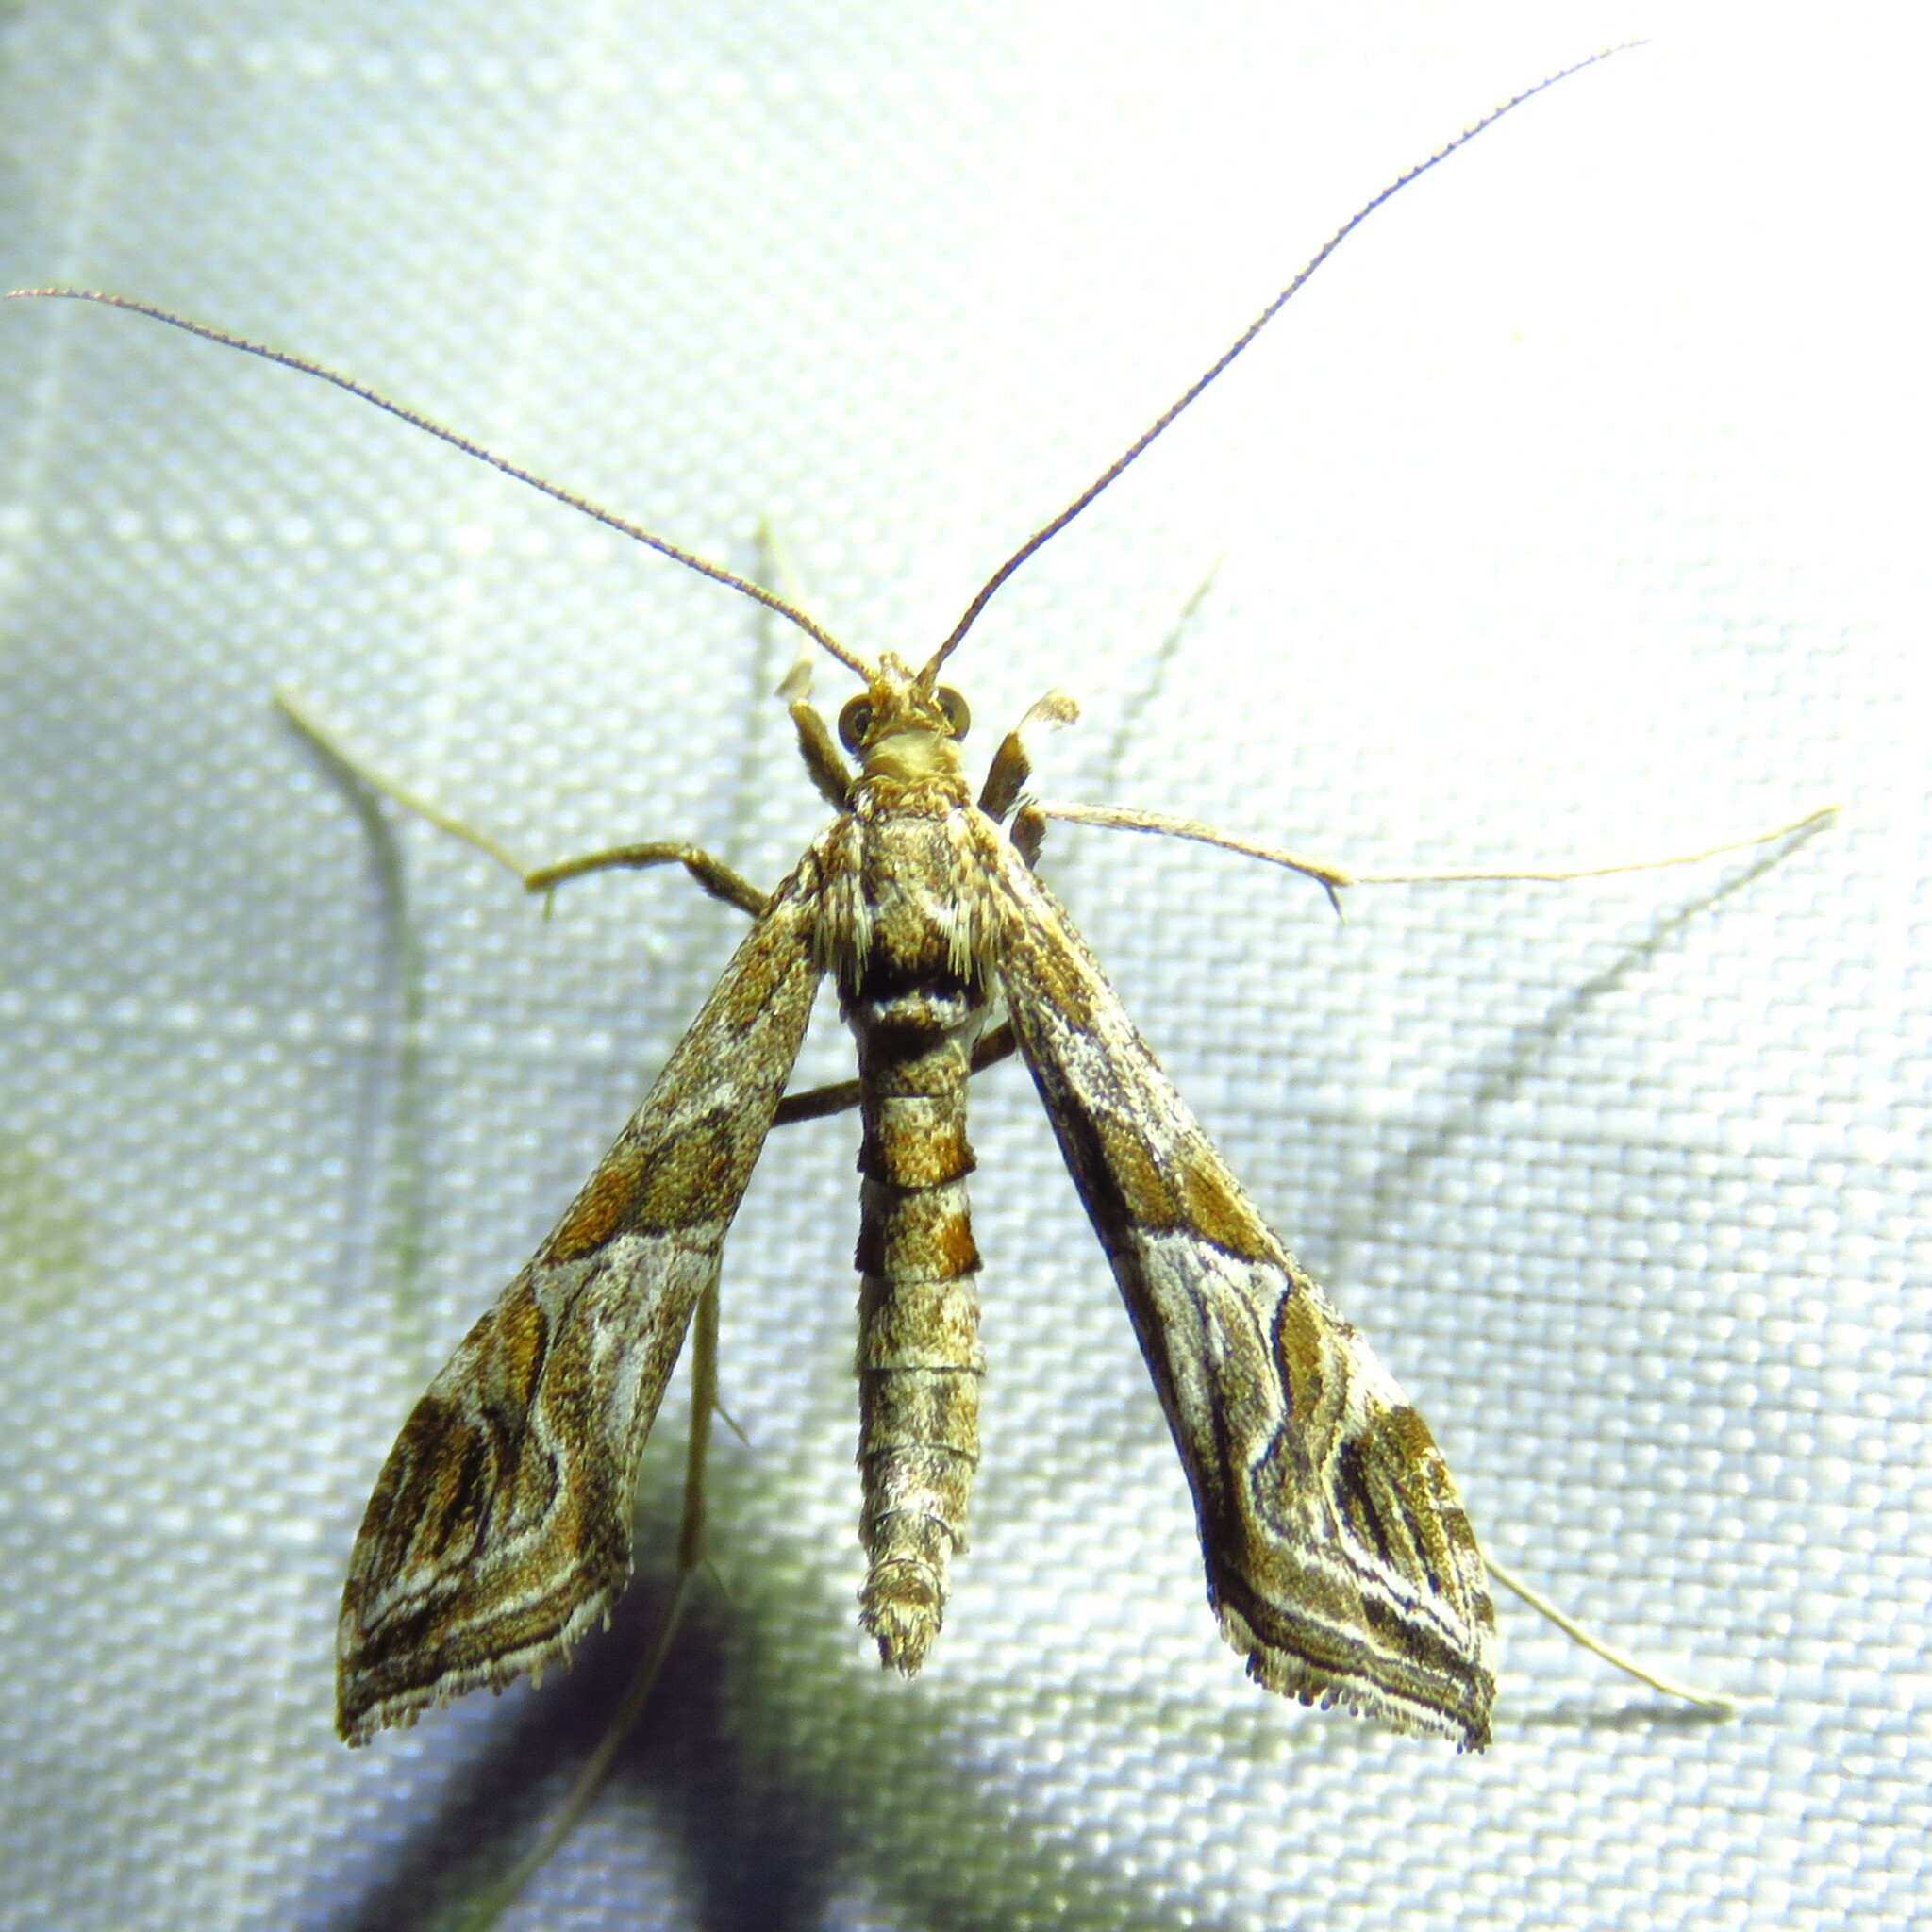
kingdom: Animalia
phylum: Arthropoda
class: Insecta
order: Lepidoptera
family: Crambidae
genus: Lineodes
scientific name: Lineodes interrupta
